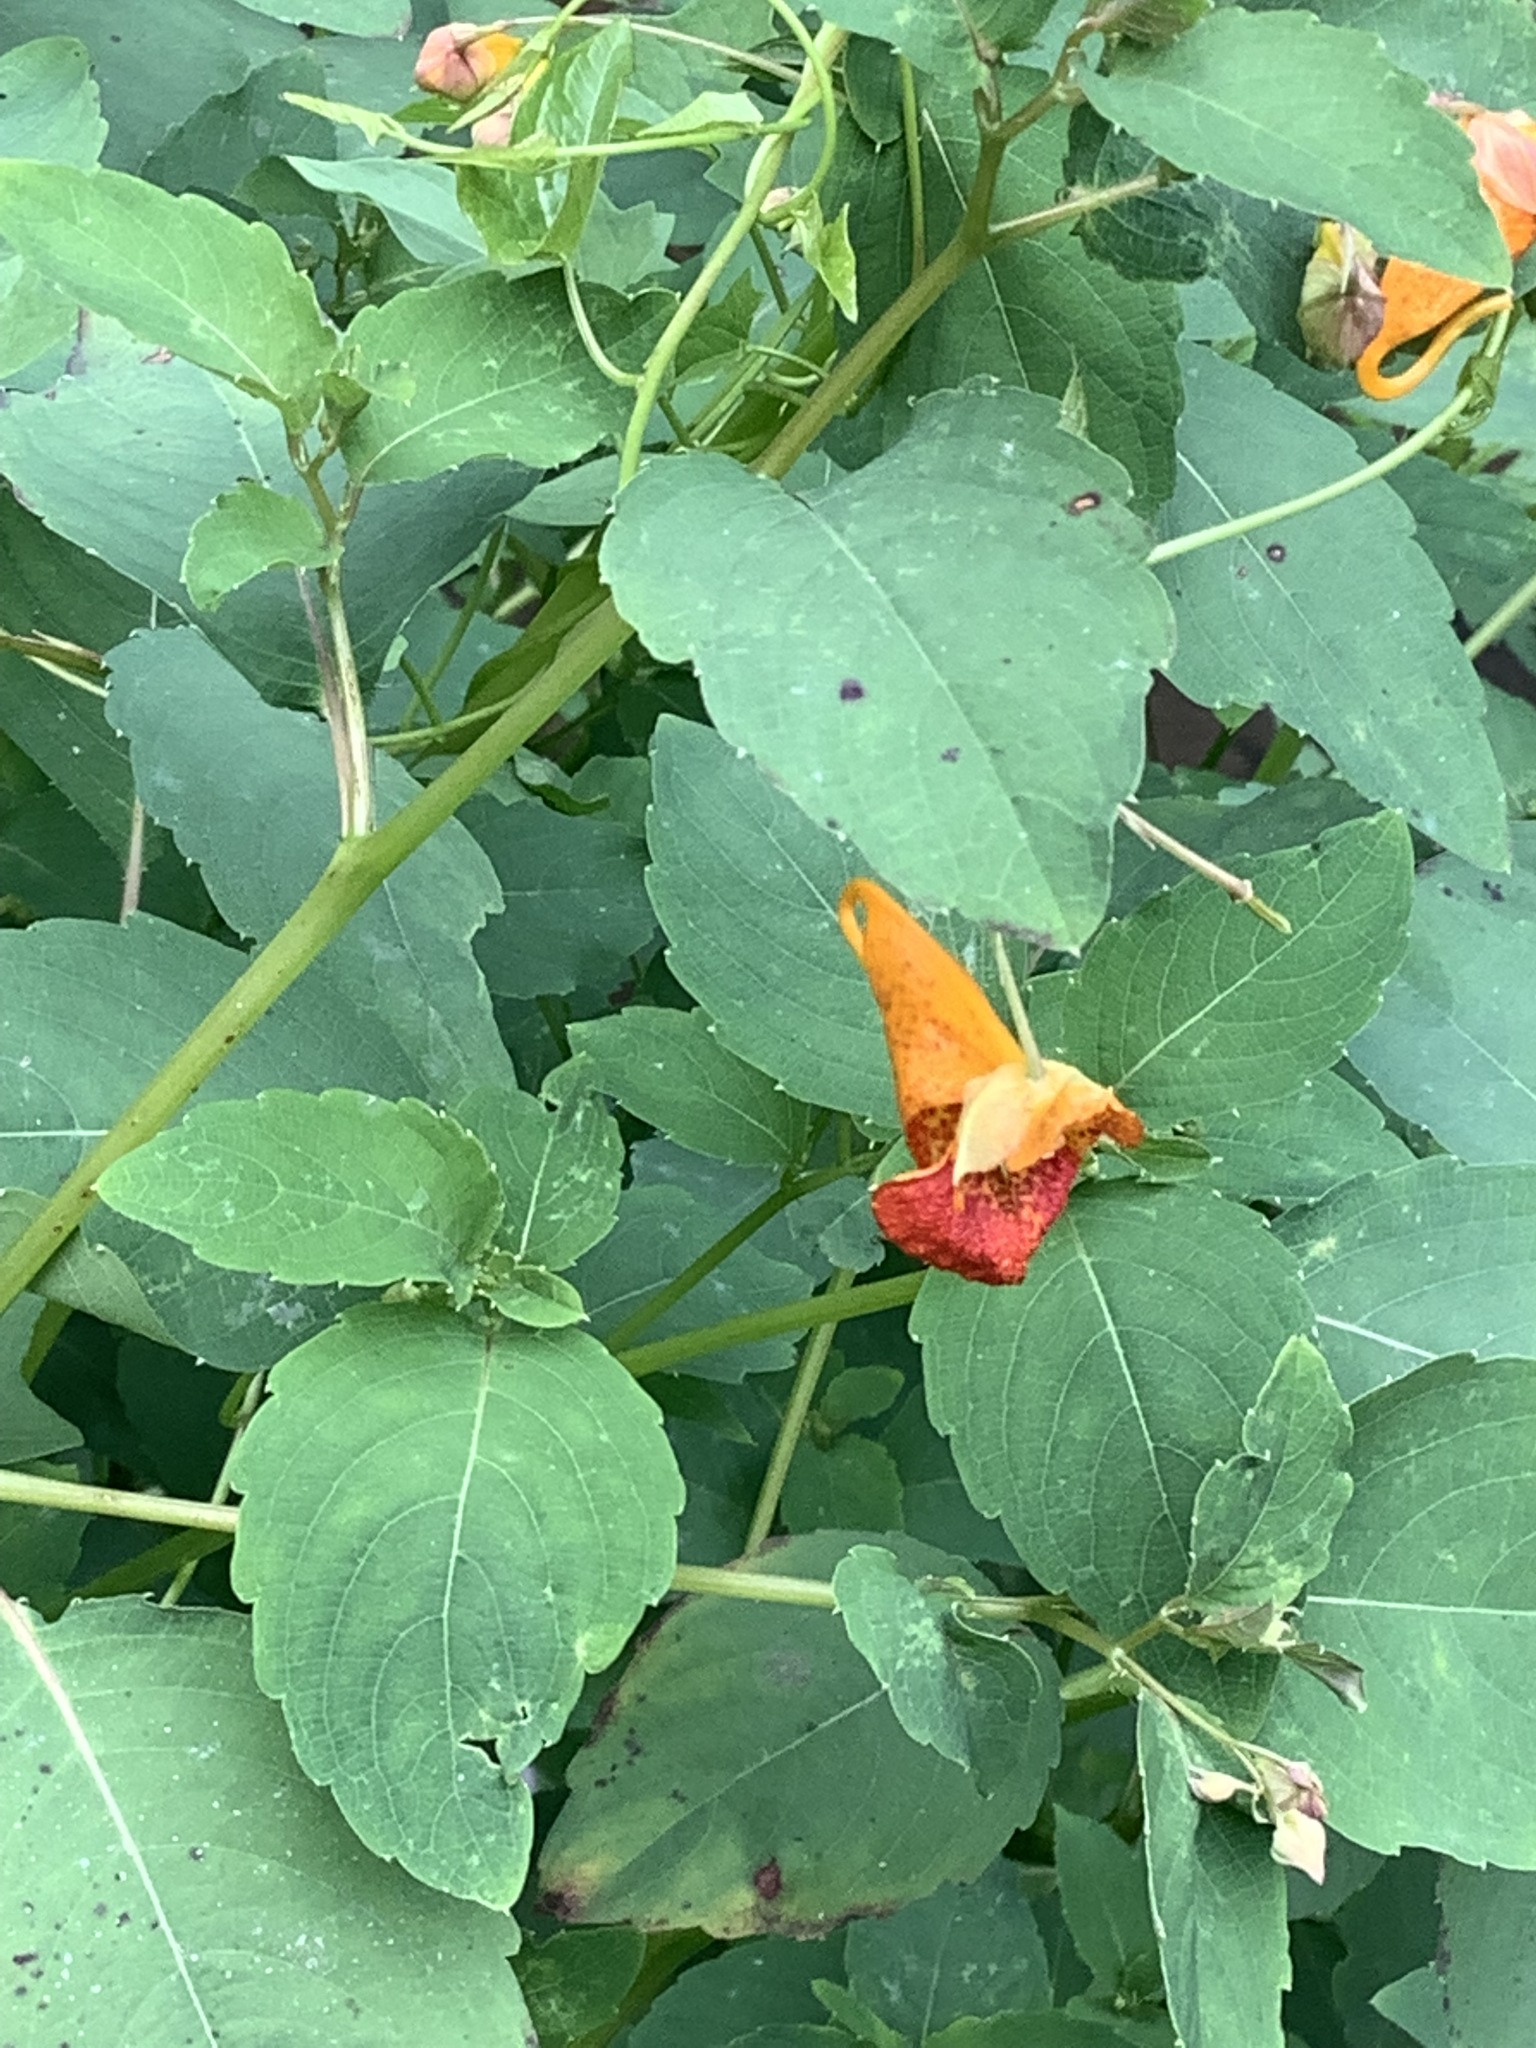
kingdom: Plantae
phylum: Tracheophyta
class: Magnoliopsida
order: Ericales
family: Balsaminaceae
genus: Impatiens
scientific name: Impatiens capensis
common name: Orange balsam
